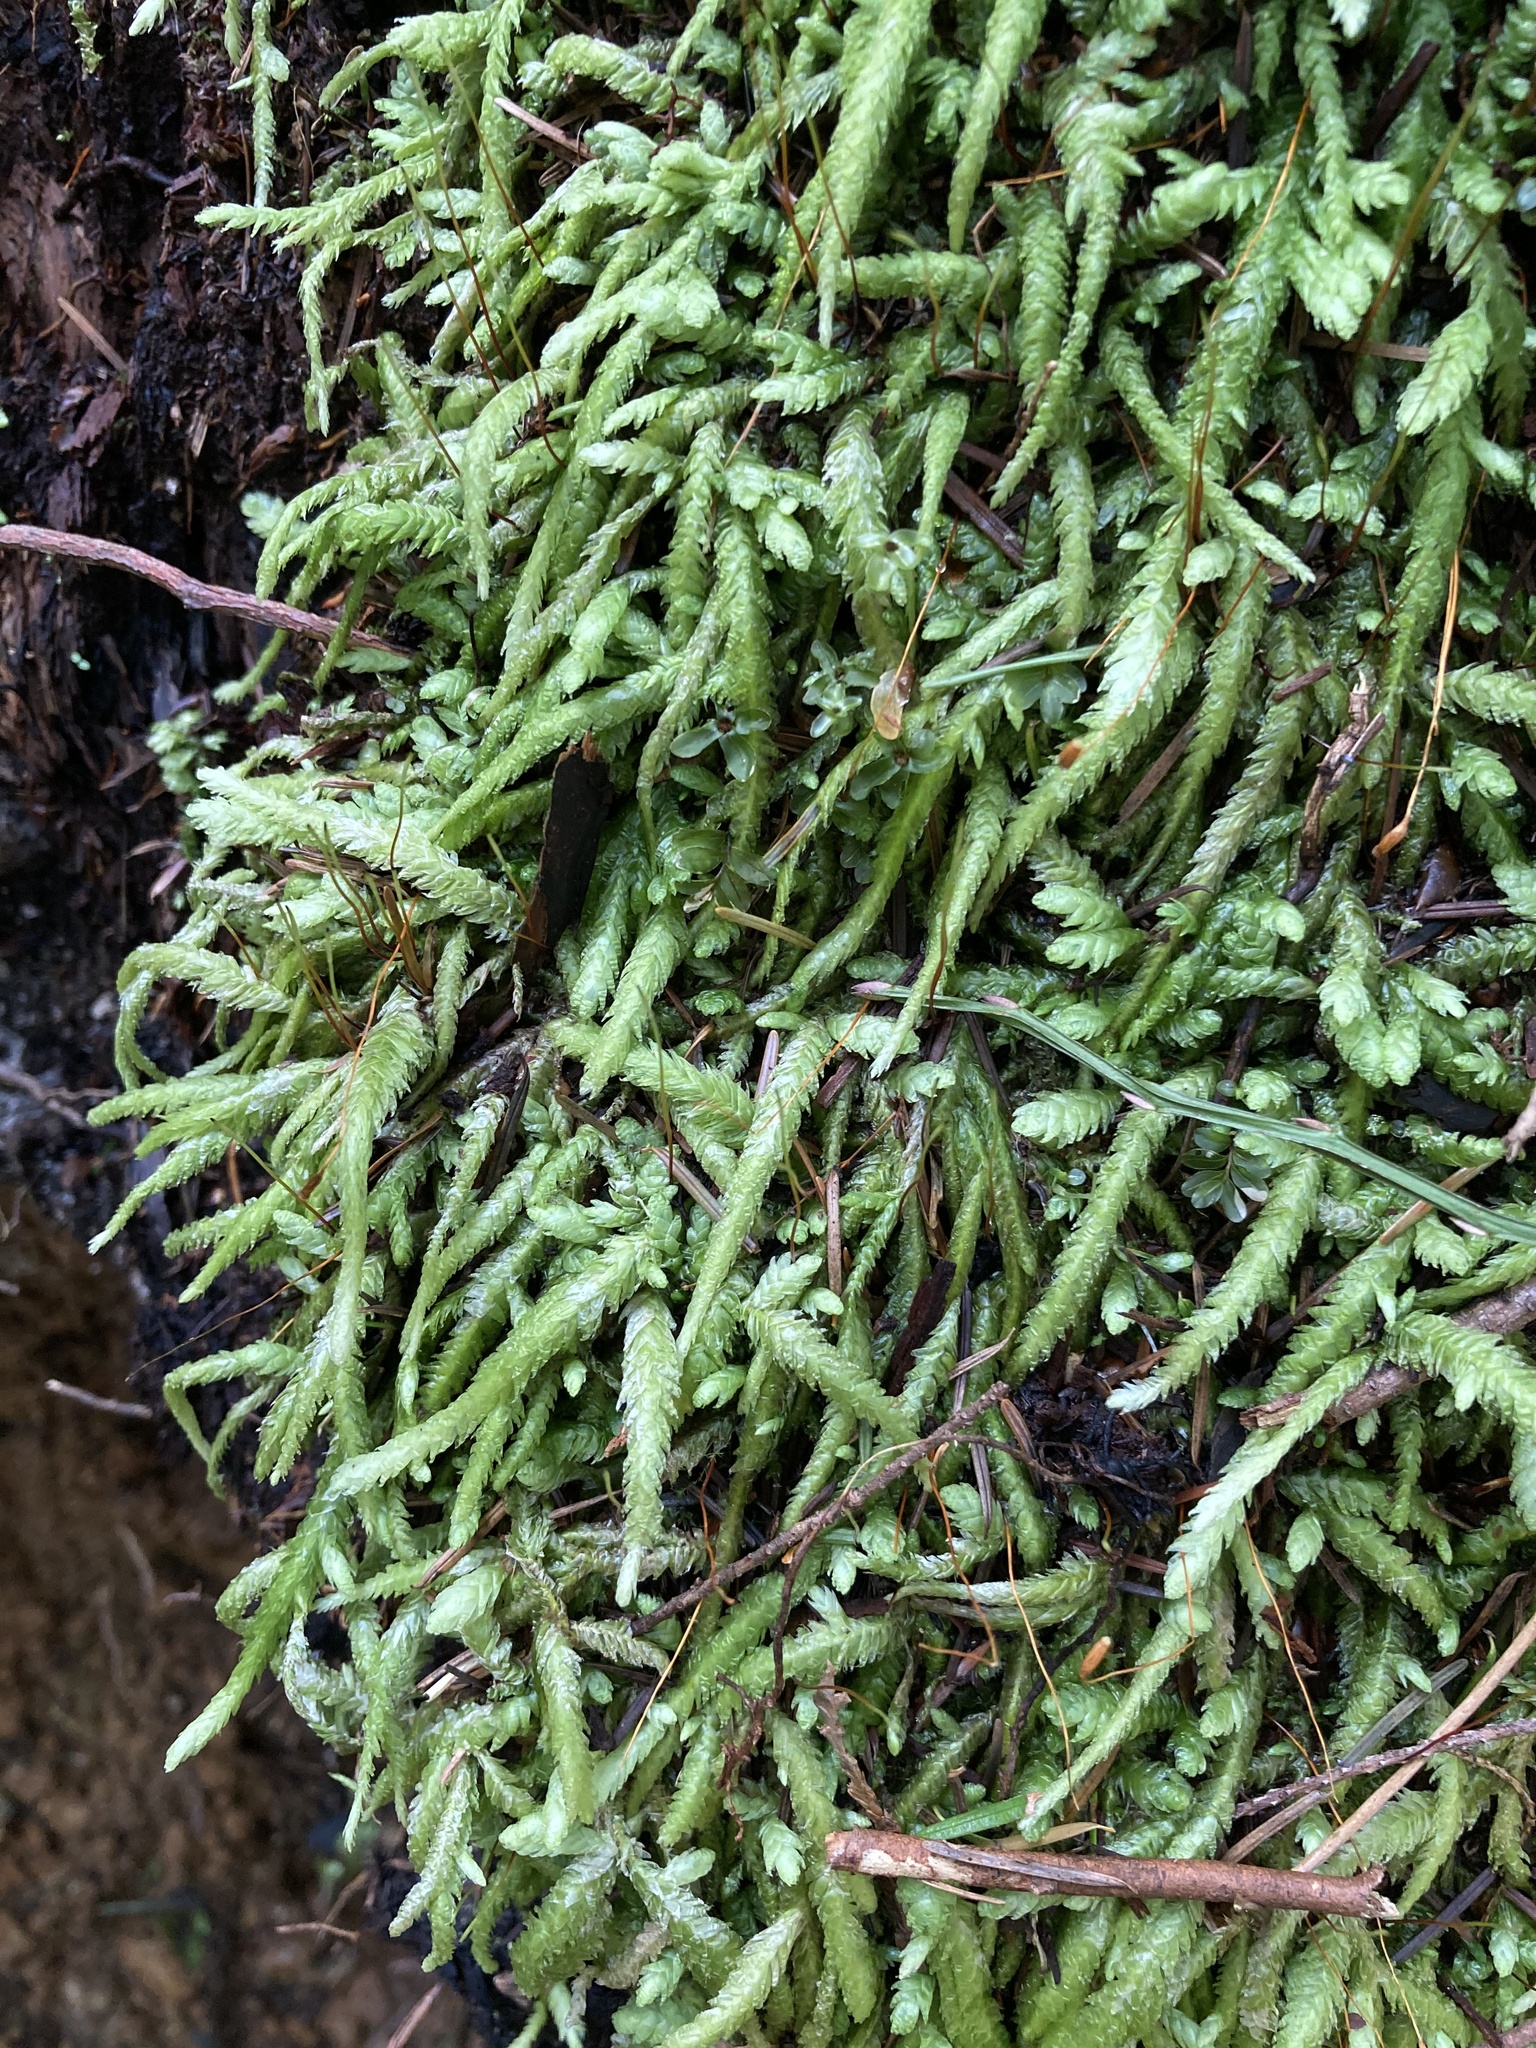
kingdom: Plantae
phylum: Bryophyta
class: Bryopsida
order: Hypnales
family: Plagiotheciaceae
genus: Plagiothecium
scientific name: Plagiothecium undulatum
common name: Waved silk-moss
